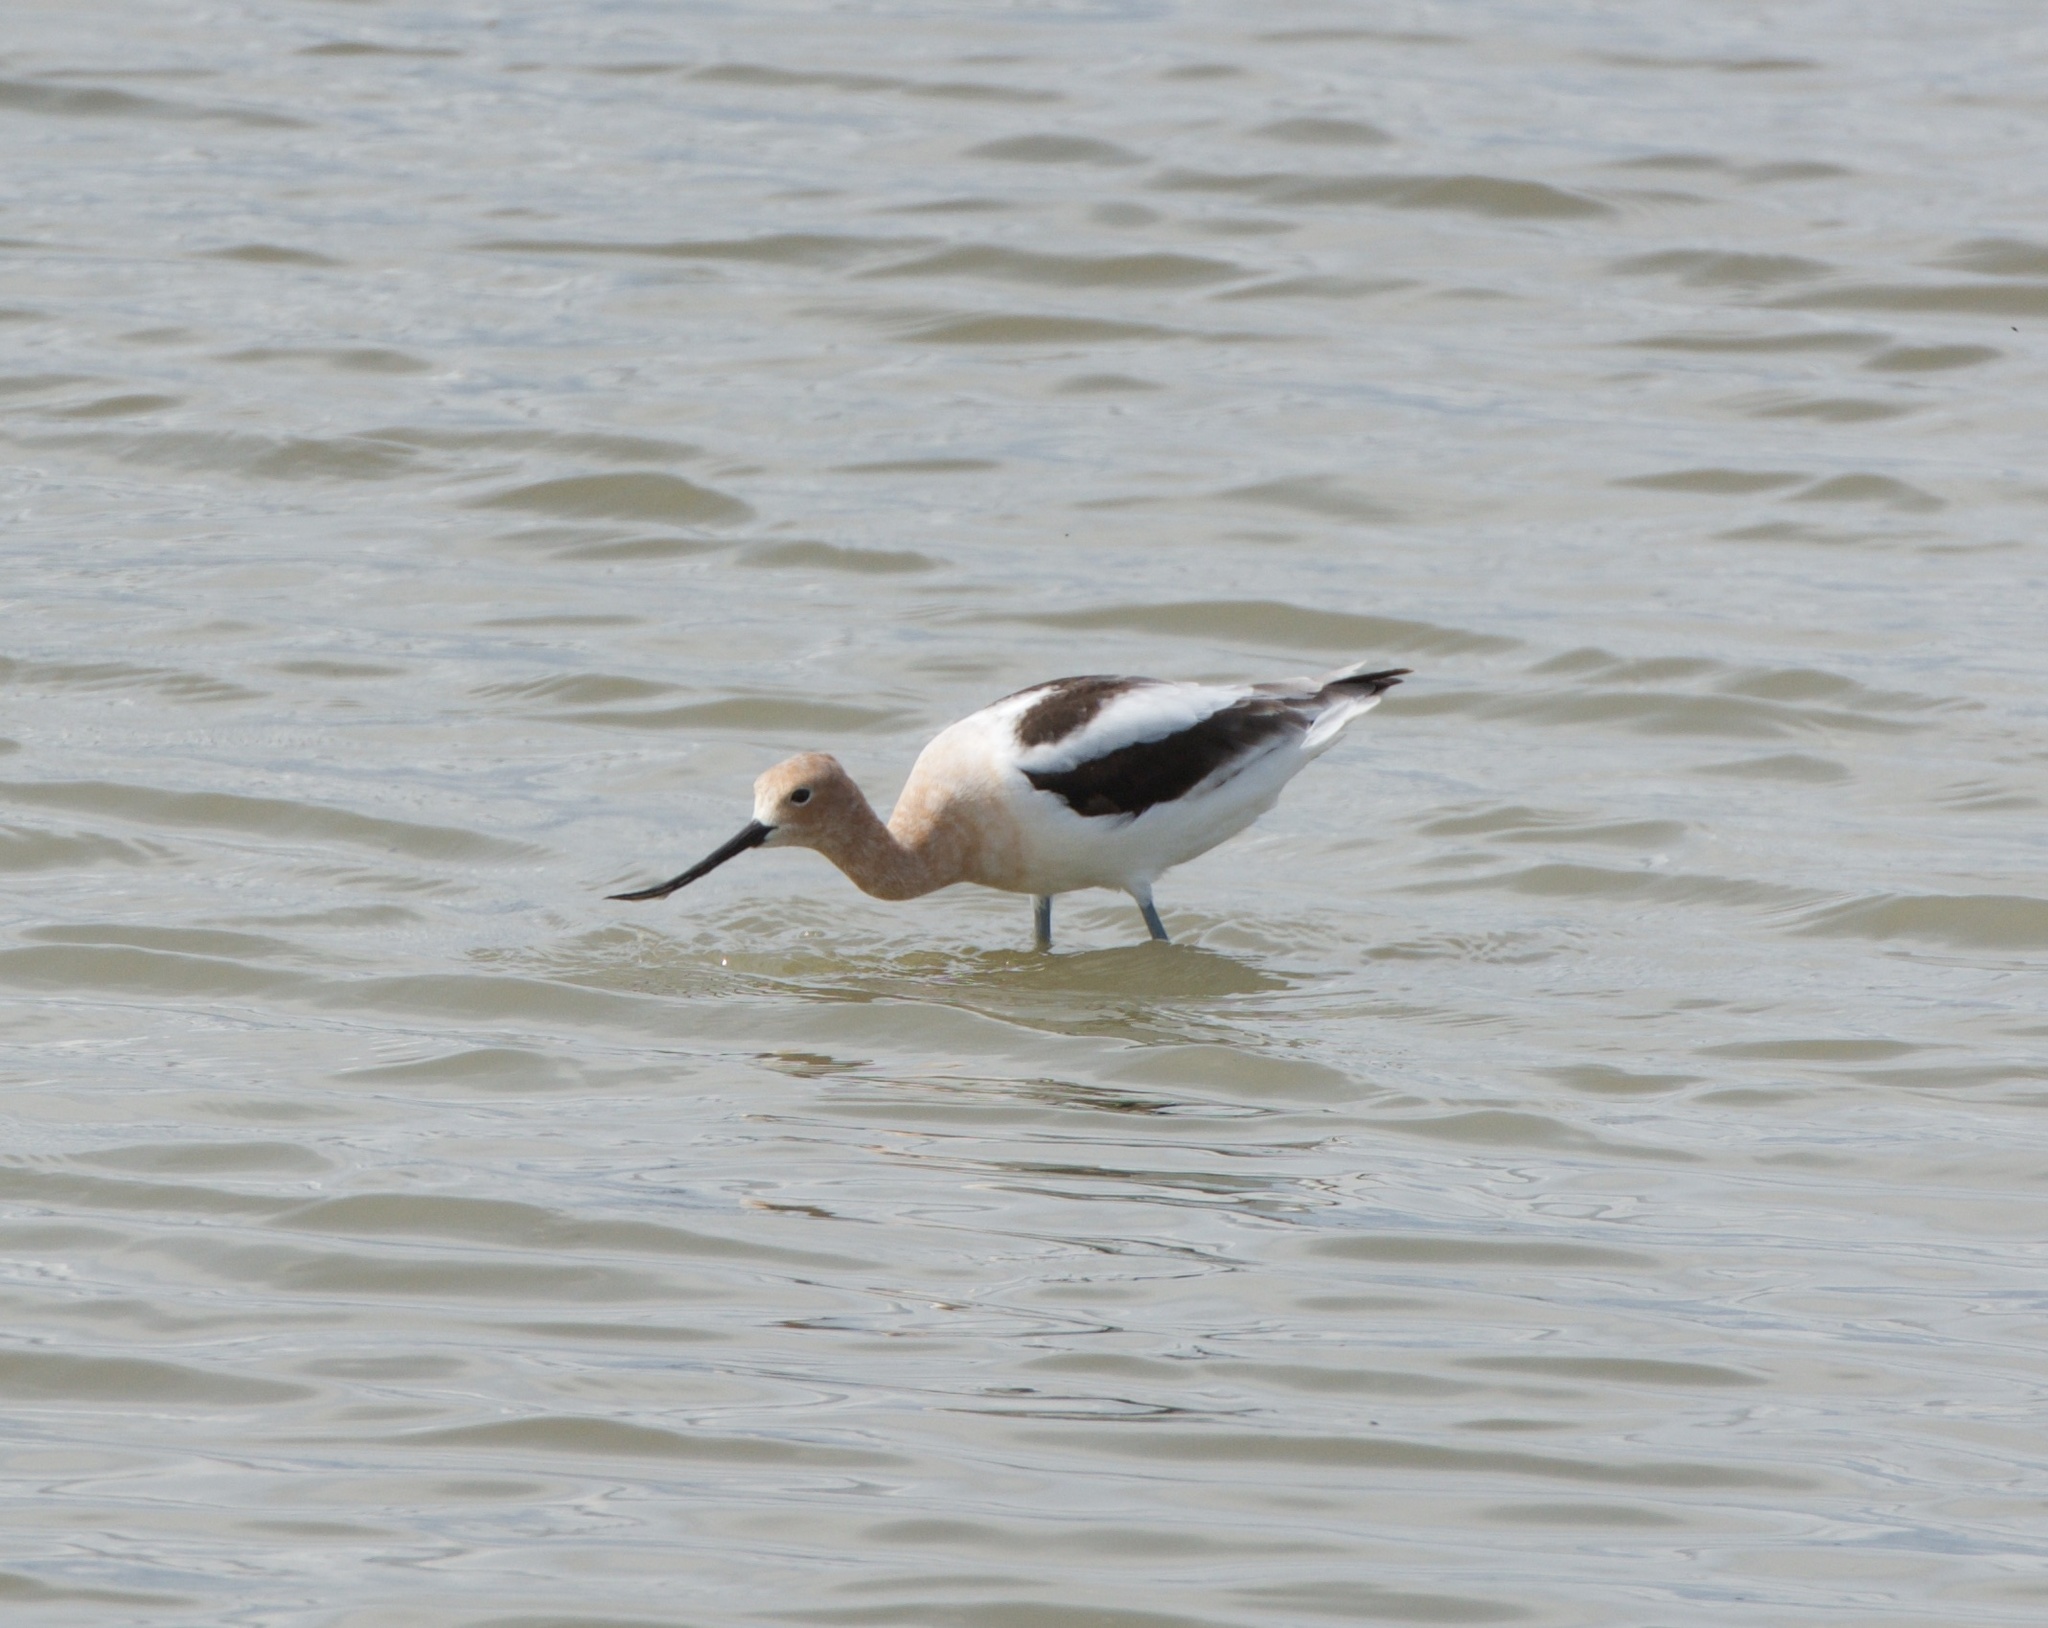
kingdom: Animalia
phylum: Chordata
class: Aves
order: Charadriiformes
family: Recurvirostridae
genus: Recurvirostra
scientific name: Recurvirostra americana
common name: American avocet
